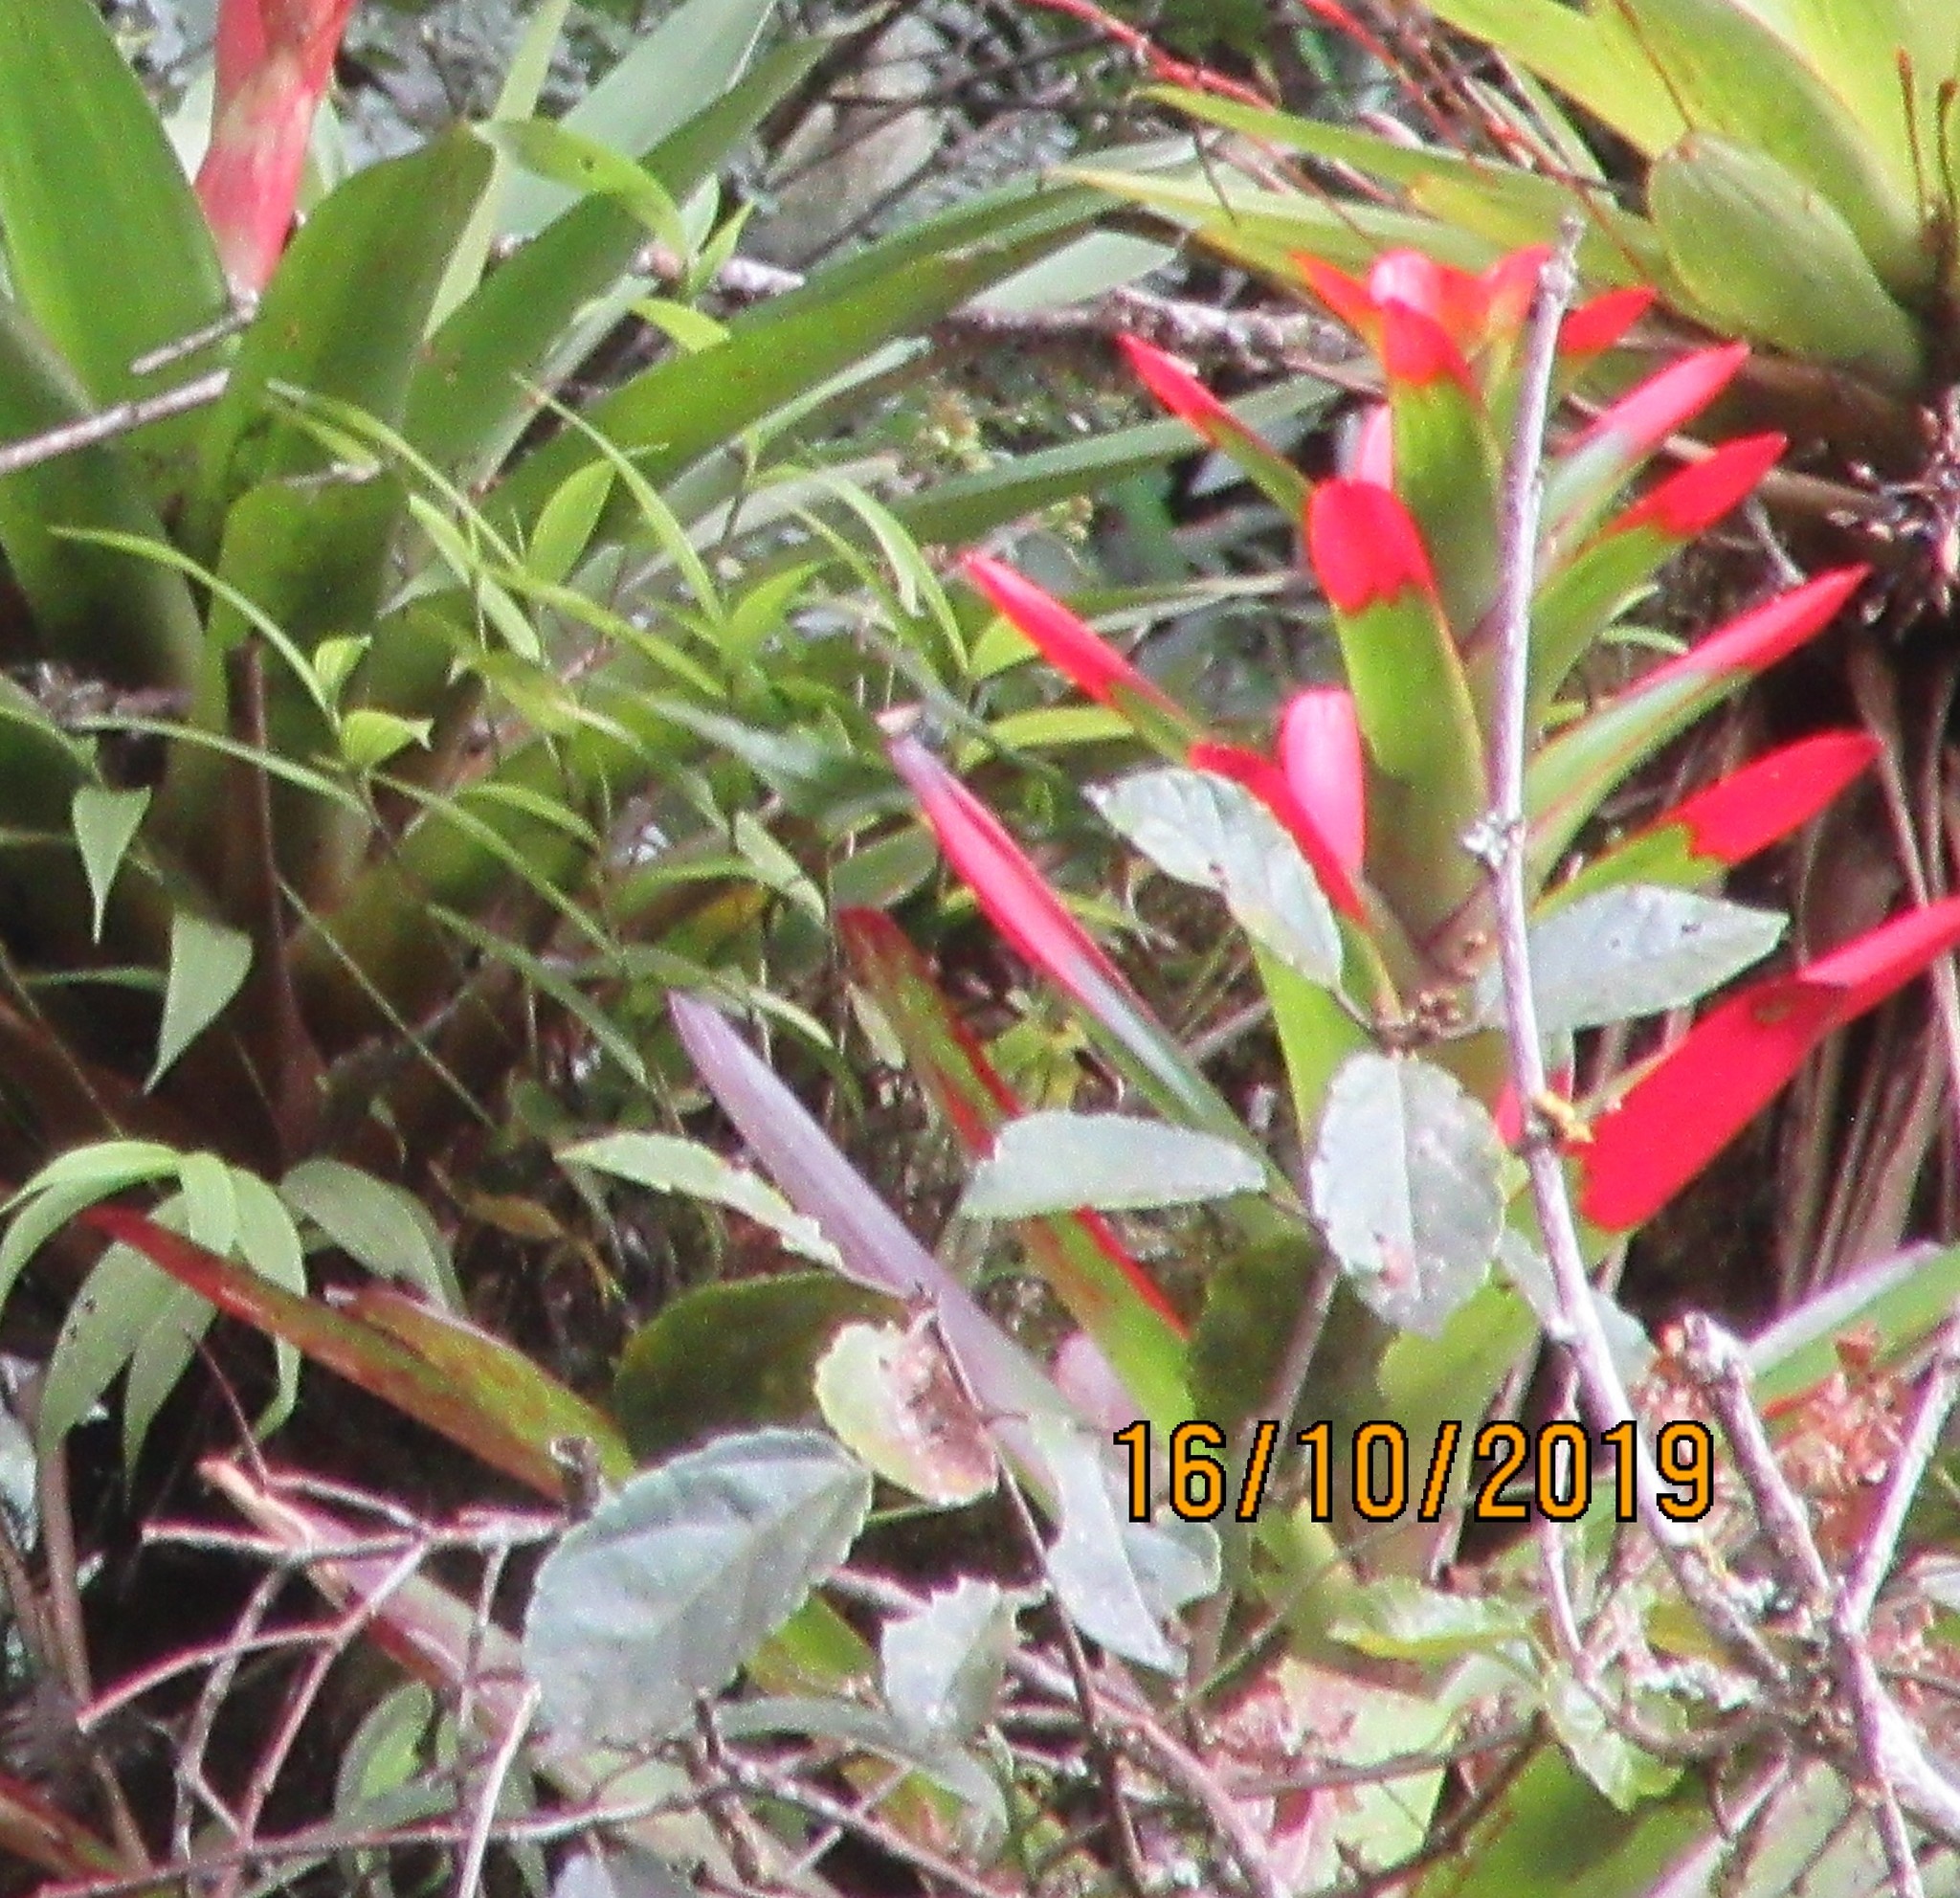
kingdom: Plantae
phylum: Tracheophyta
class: Liliopsida
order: Poales
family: Bromeliaceae
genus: Guzmania
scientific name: Guzmania gloriosa
